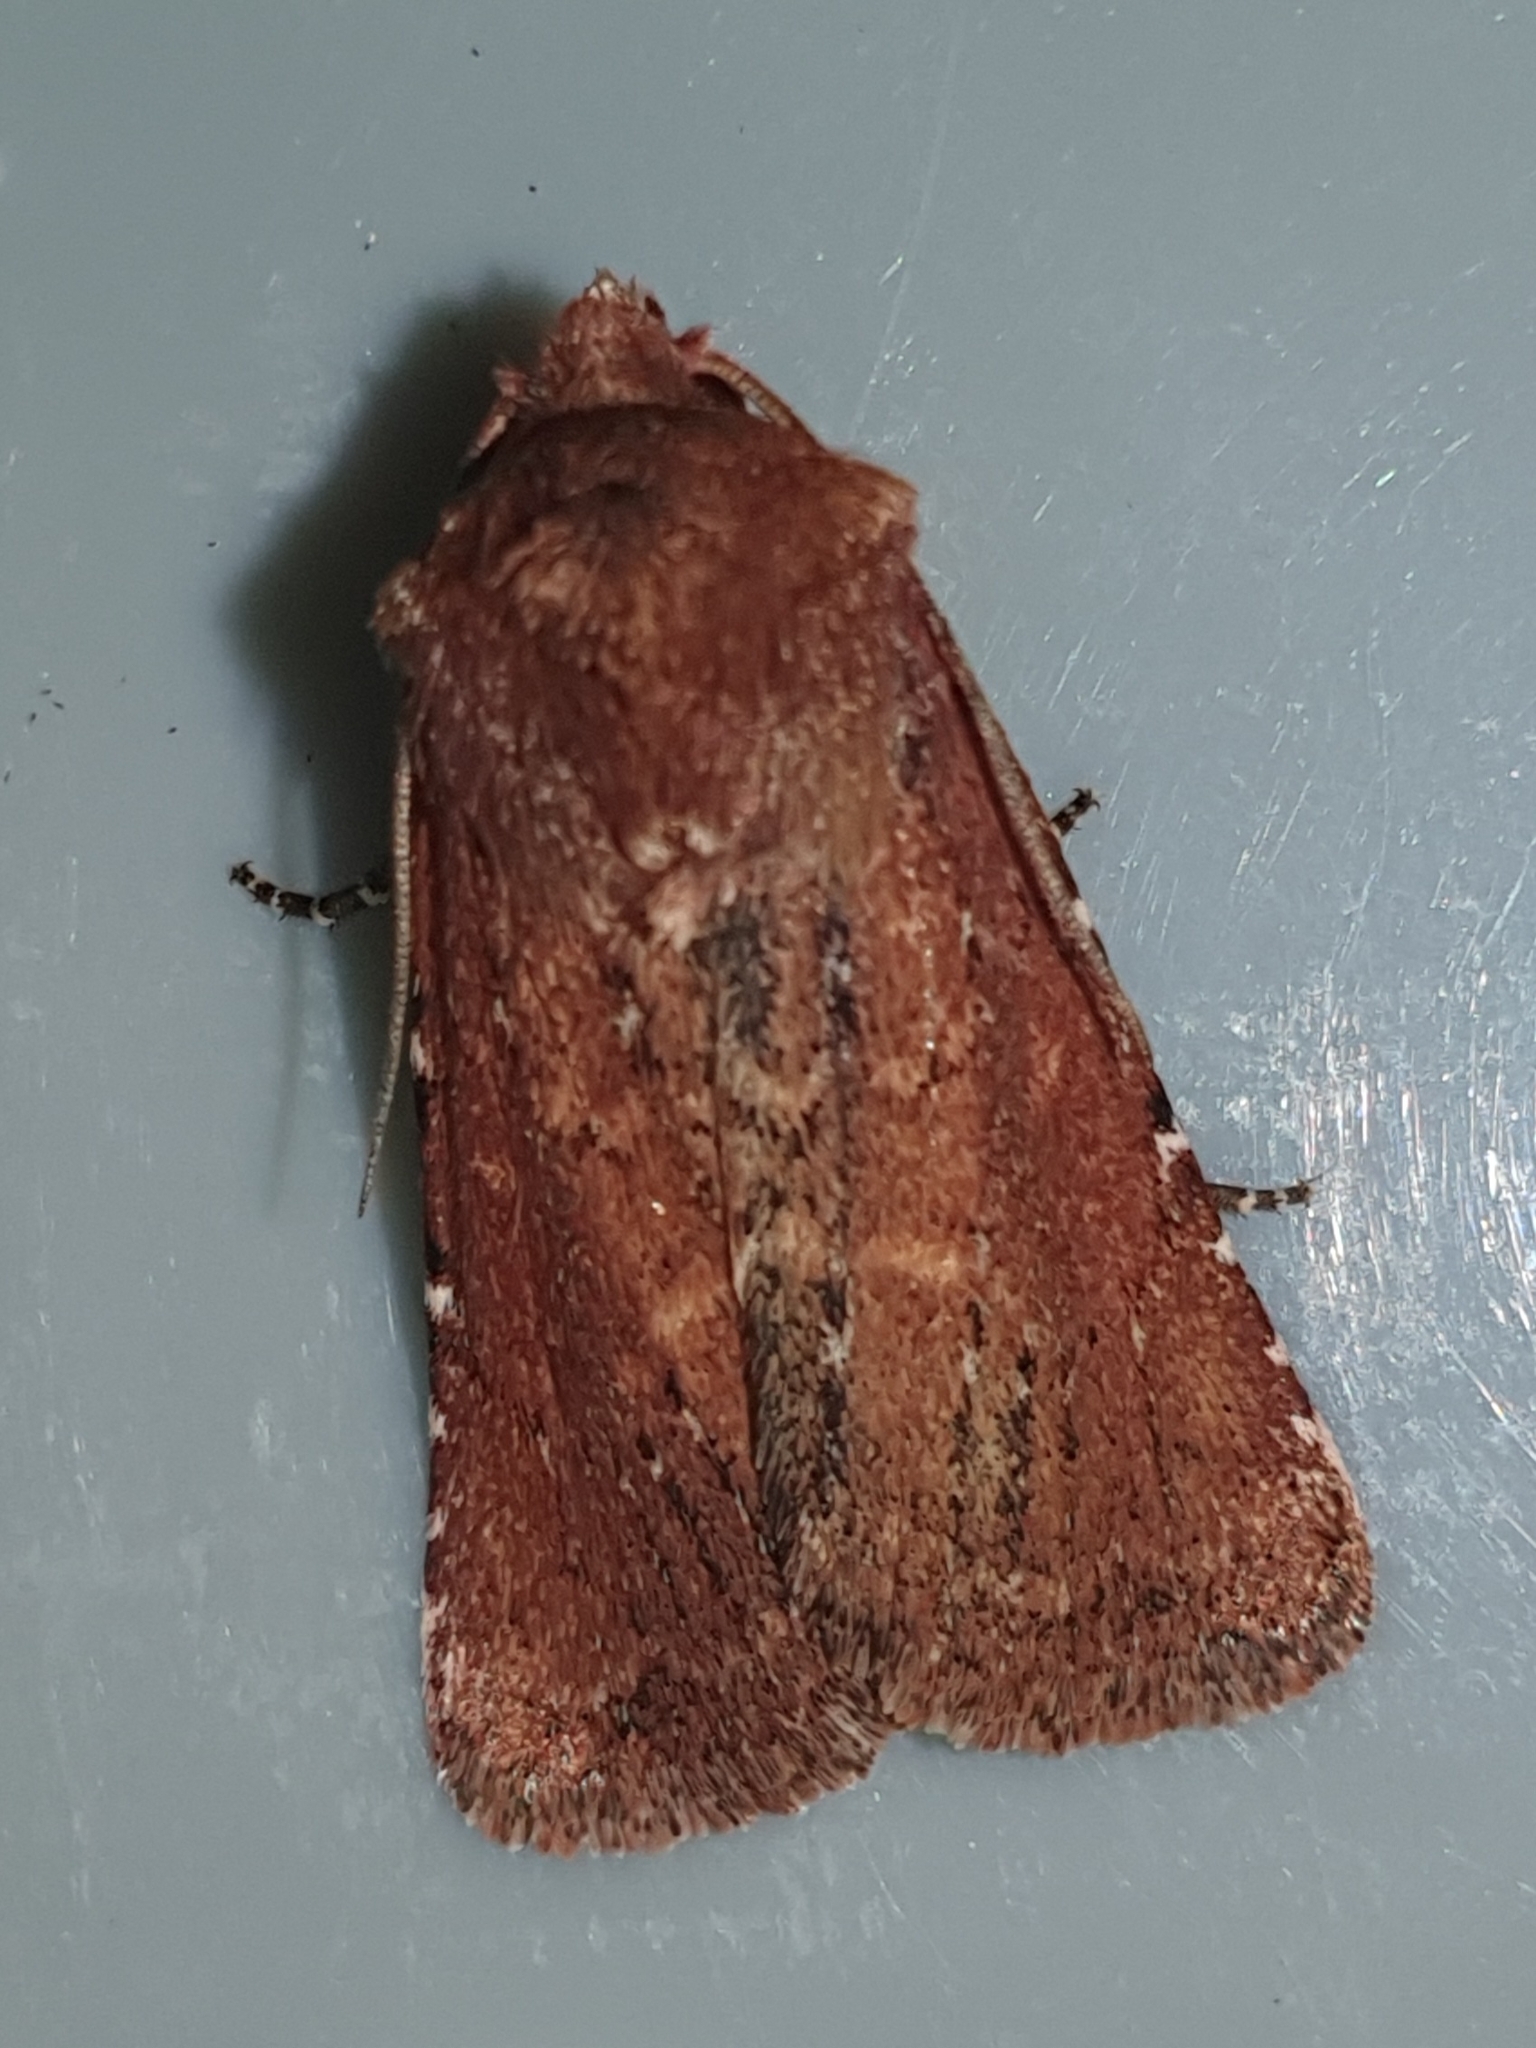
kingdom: Animalia
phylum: Arthropoda
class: Insecta
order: Lepidoptera
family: Noctuidae
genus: Lycophotia
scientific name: Lycophotia erythrina
